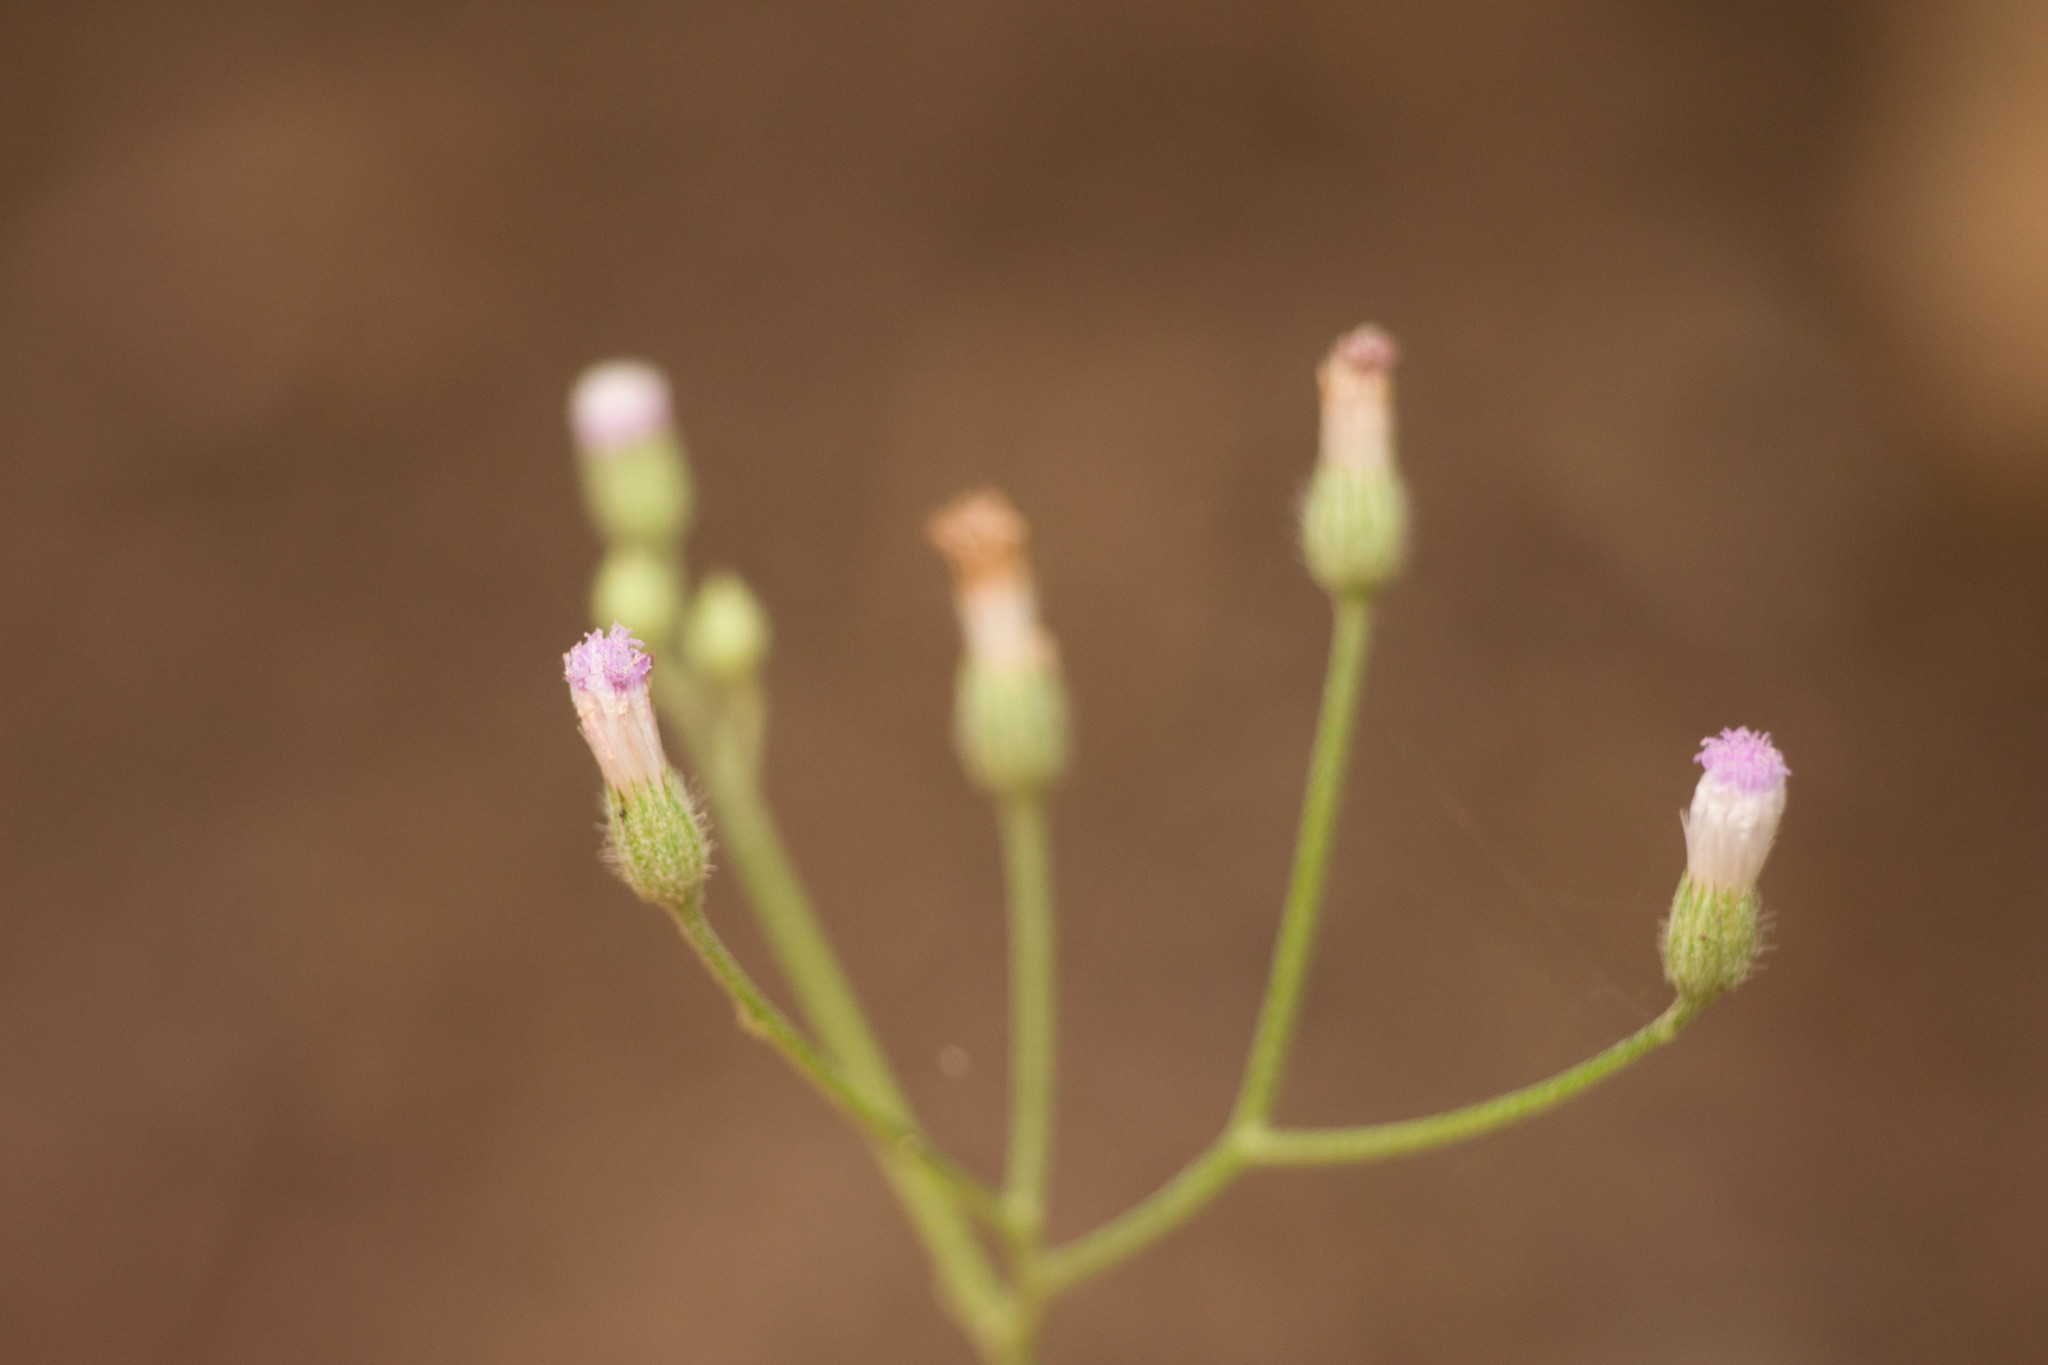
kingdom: Plantae
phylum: Tracheophyta
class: Magnoliopsida
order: Asterales
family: Asteraceae
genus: Cyanthillium
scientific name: Cyanthillium cinereum
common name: Little ironweed
